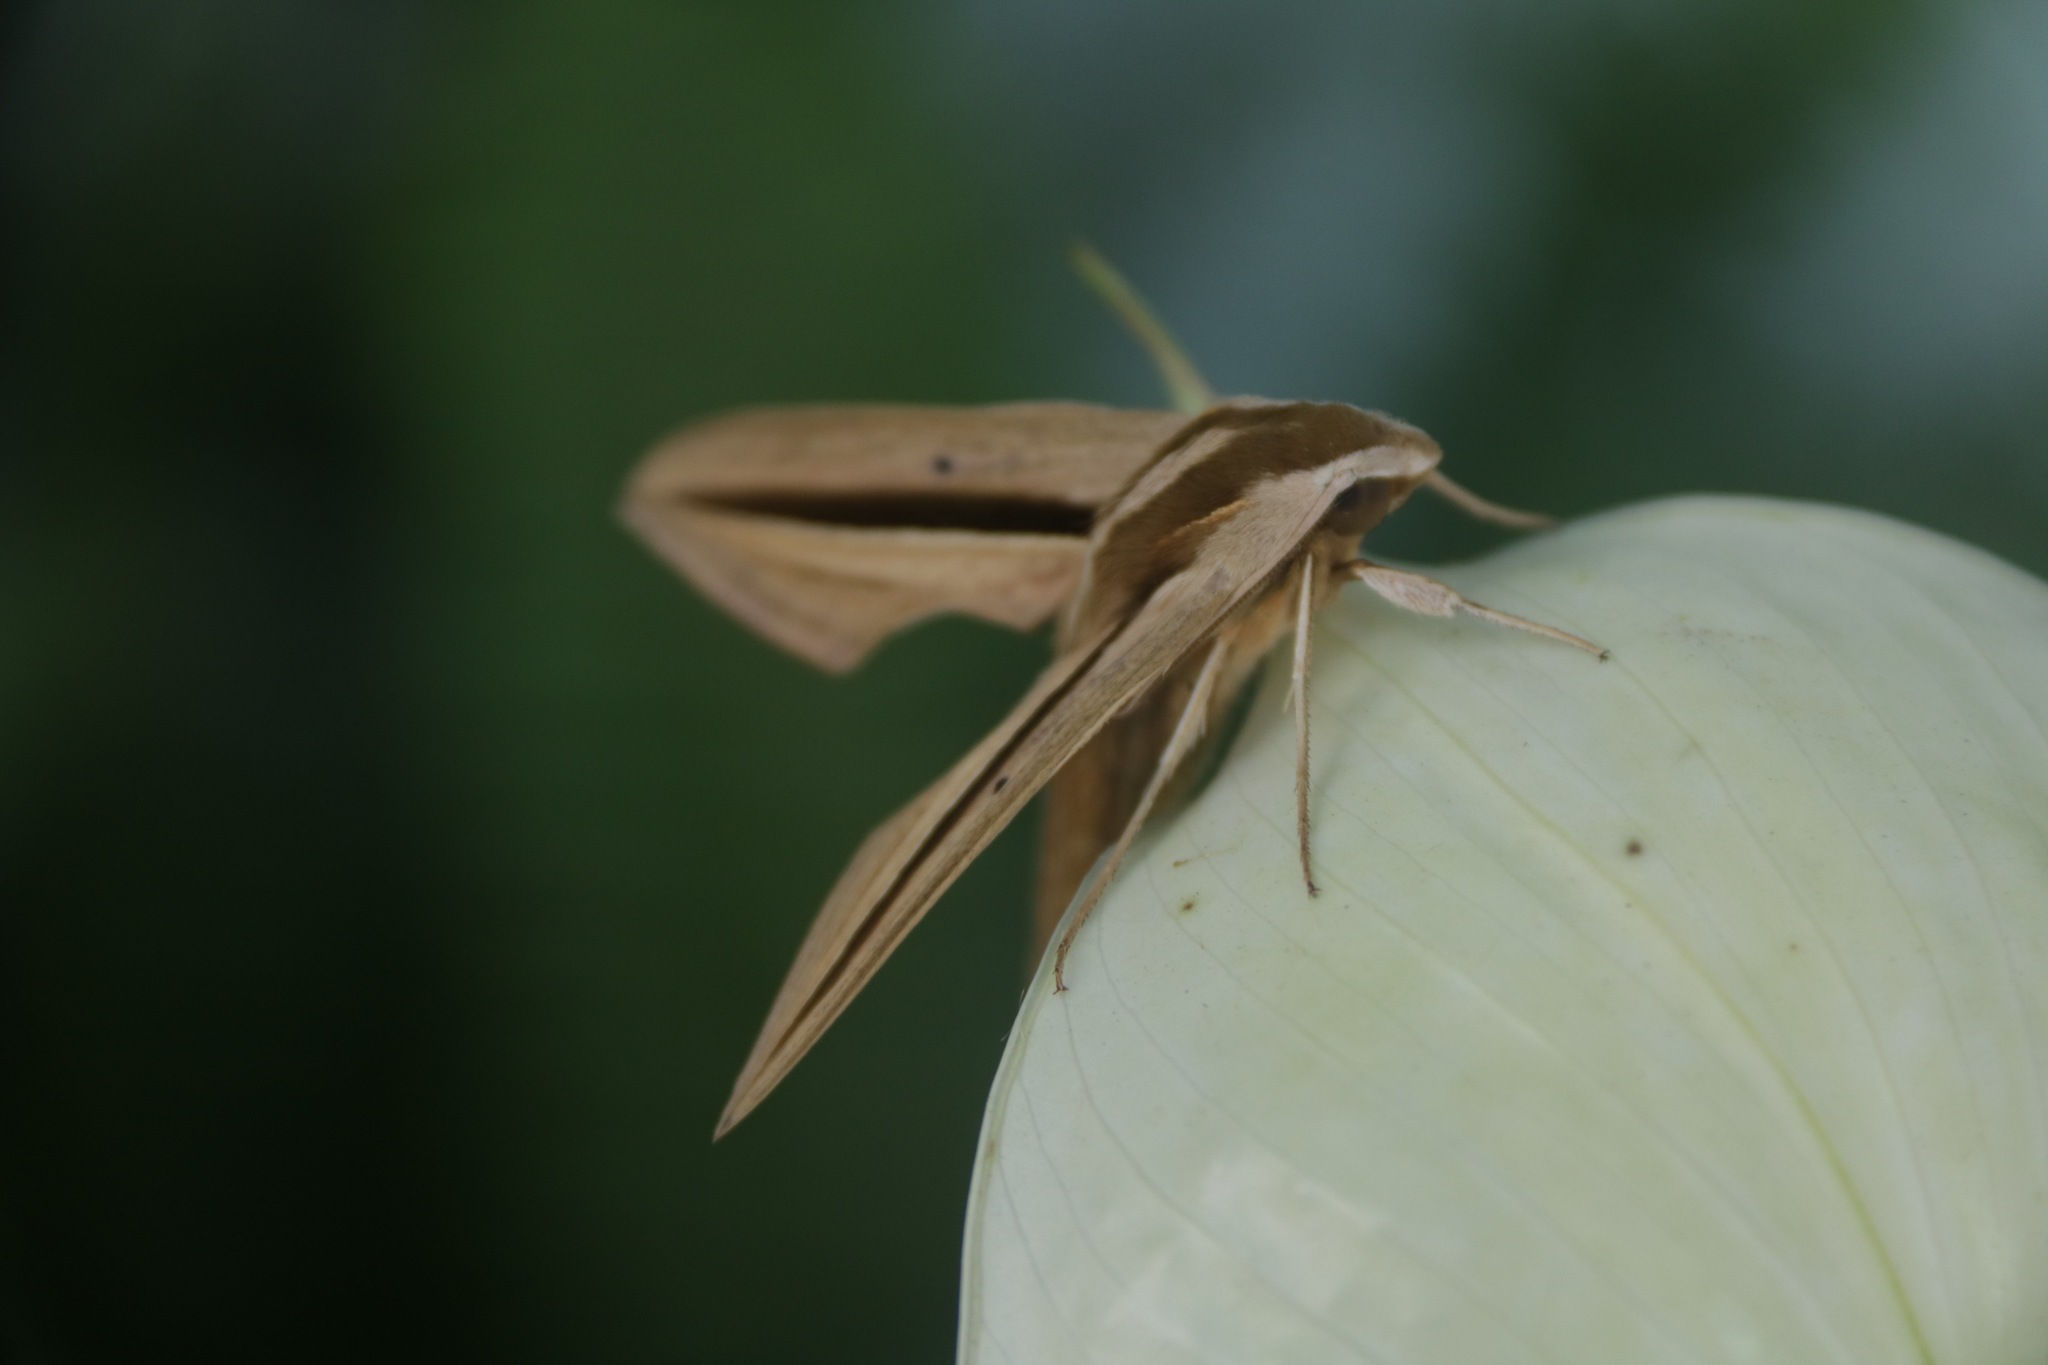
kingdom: Animalia
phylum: Arthropoda
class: Insecta
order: Lepidoptera
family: Sphingidae
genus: Theretra
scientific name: Theretra silhetensis
